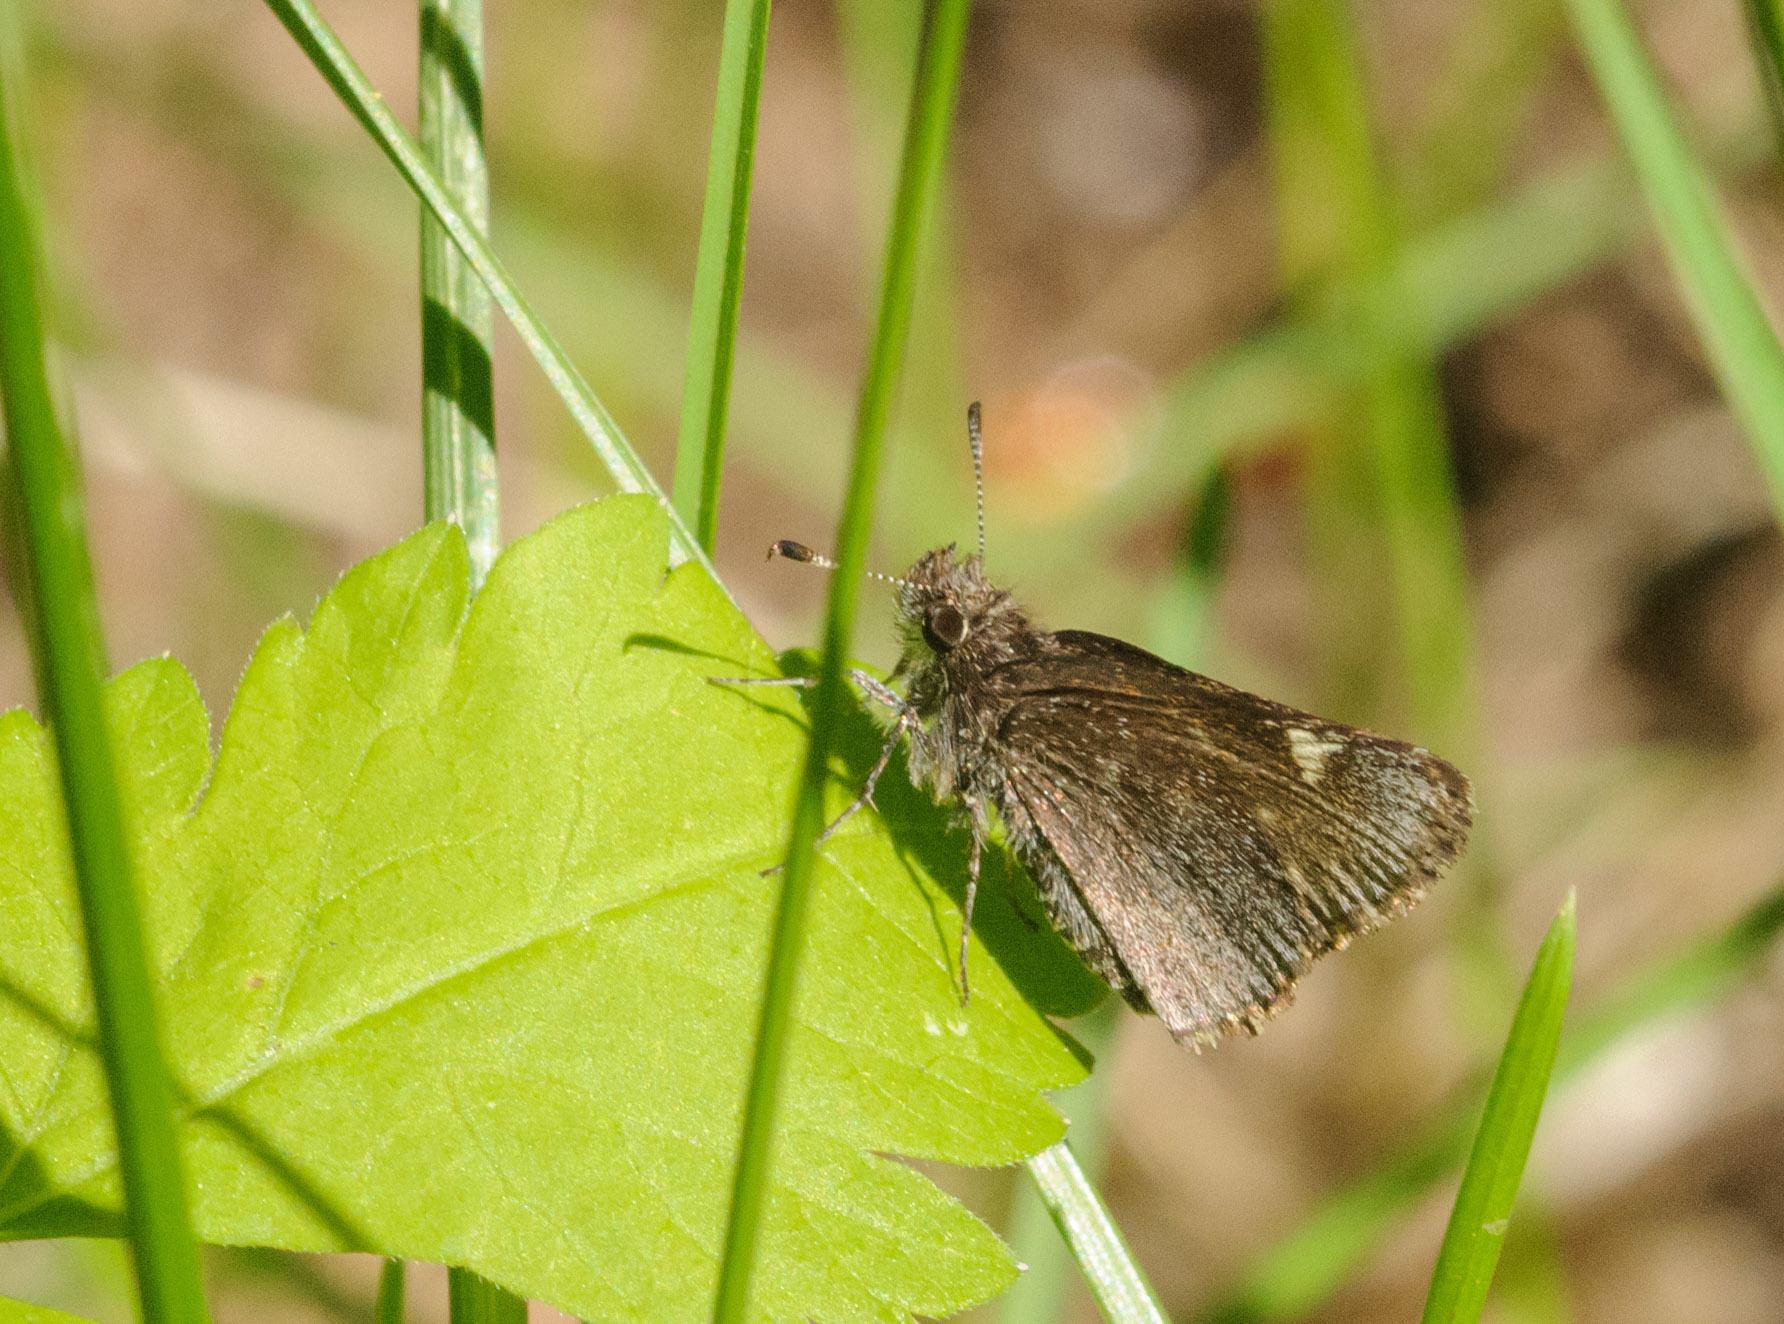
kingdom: Animalia
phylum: Arthropoda
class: Insecta
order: Lepidoptera
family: Hesperiidae
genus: Mastor
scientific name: Mastor vialis
